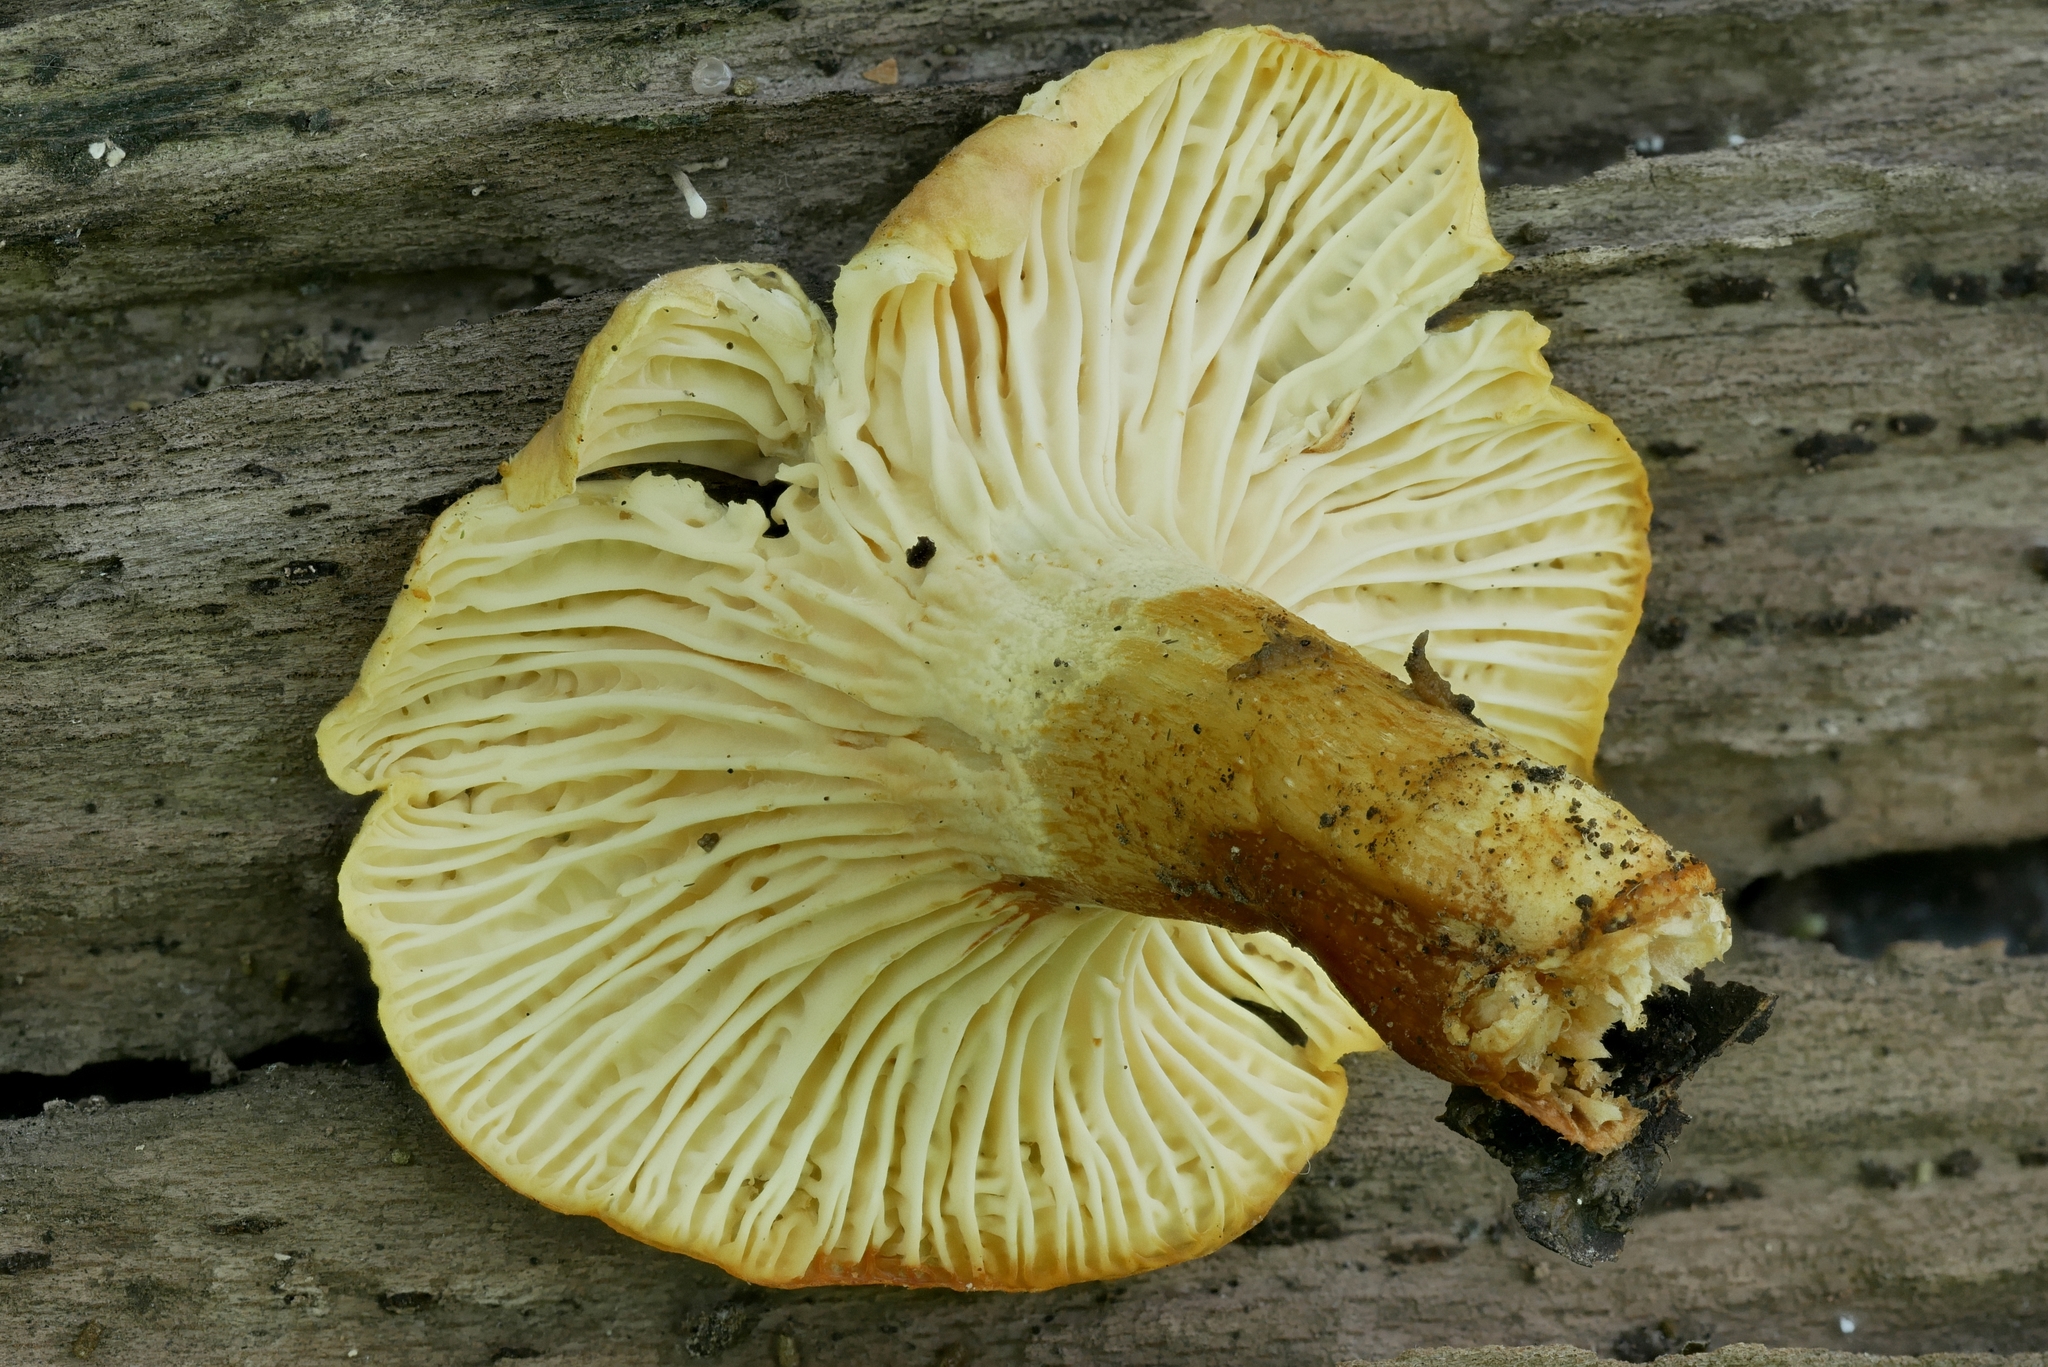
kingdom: Fungi
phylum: Basidiomycota
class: Agaricomycetes
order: Cantharellales
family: Hydnaceae
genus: Cantharellus
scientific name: Cantharellus lewisii
